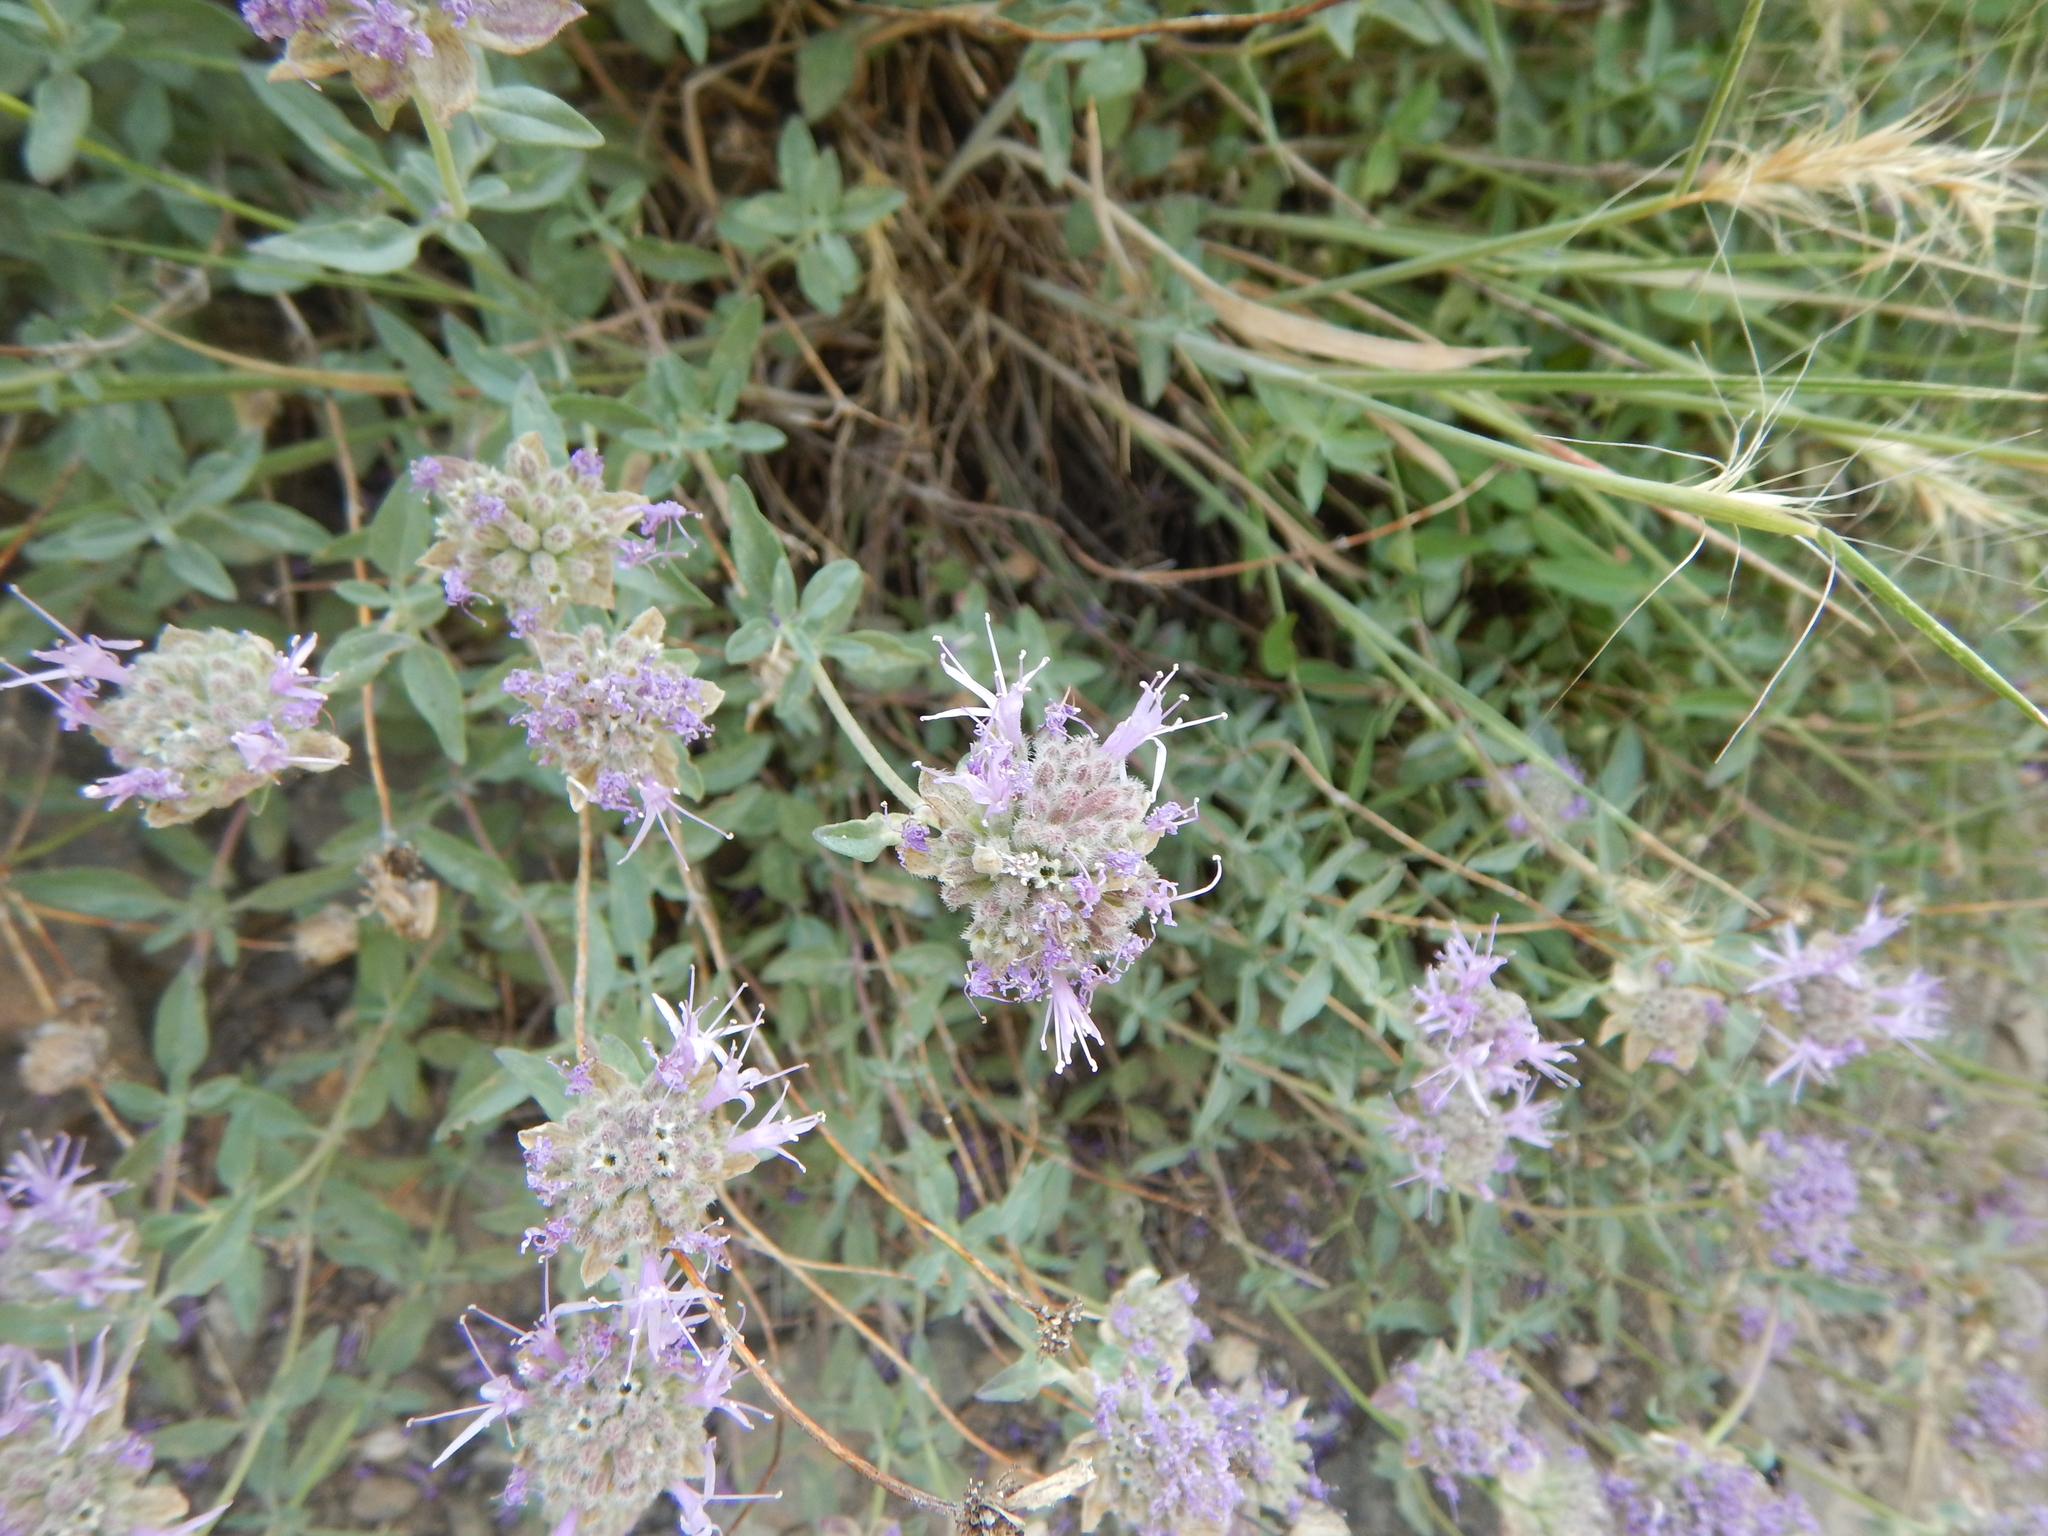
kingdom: Plantae
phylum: Tracheophyta
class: Magnoliopsida
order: Lamiales
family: Lamiaceae
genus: Monardella
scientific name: Monardella odoratissima
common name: Pacific monardella
